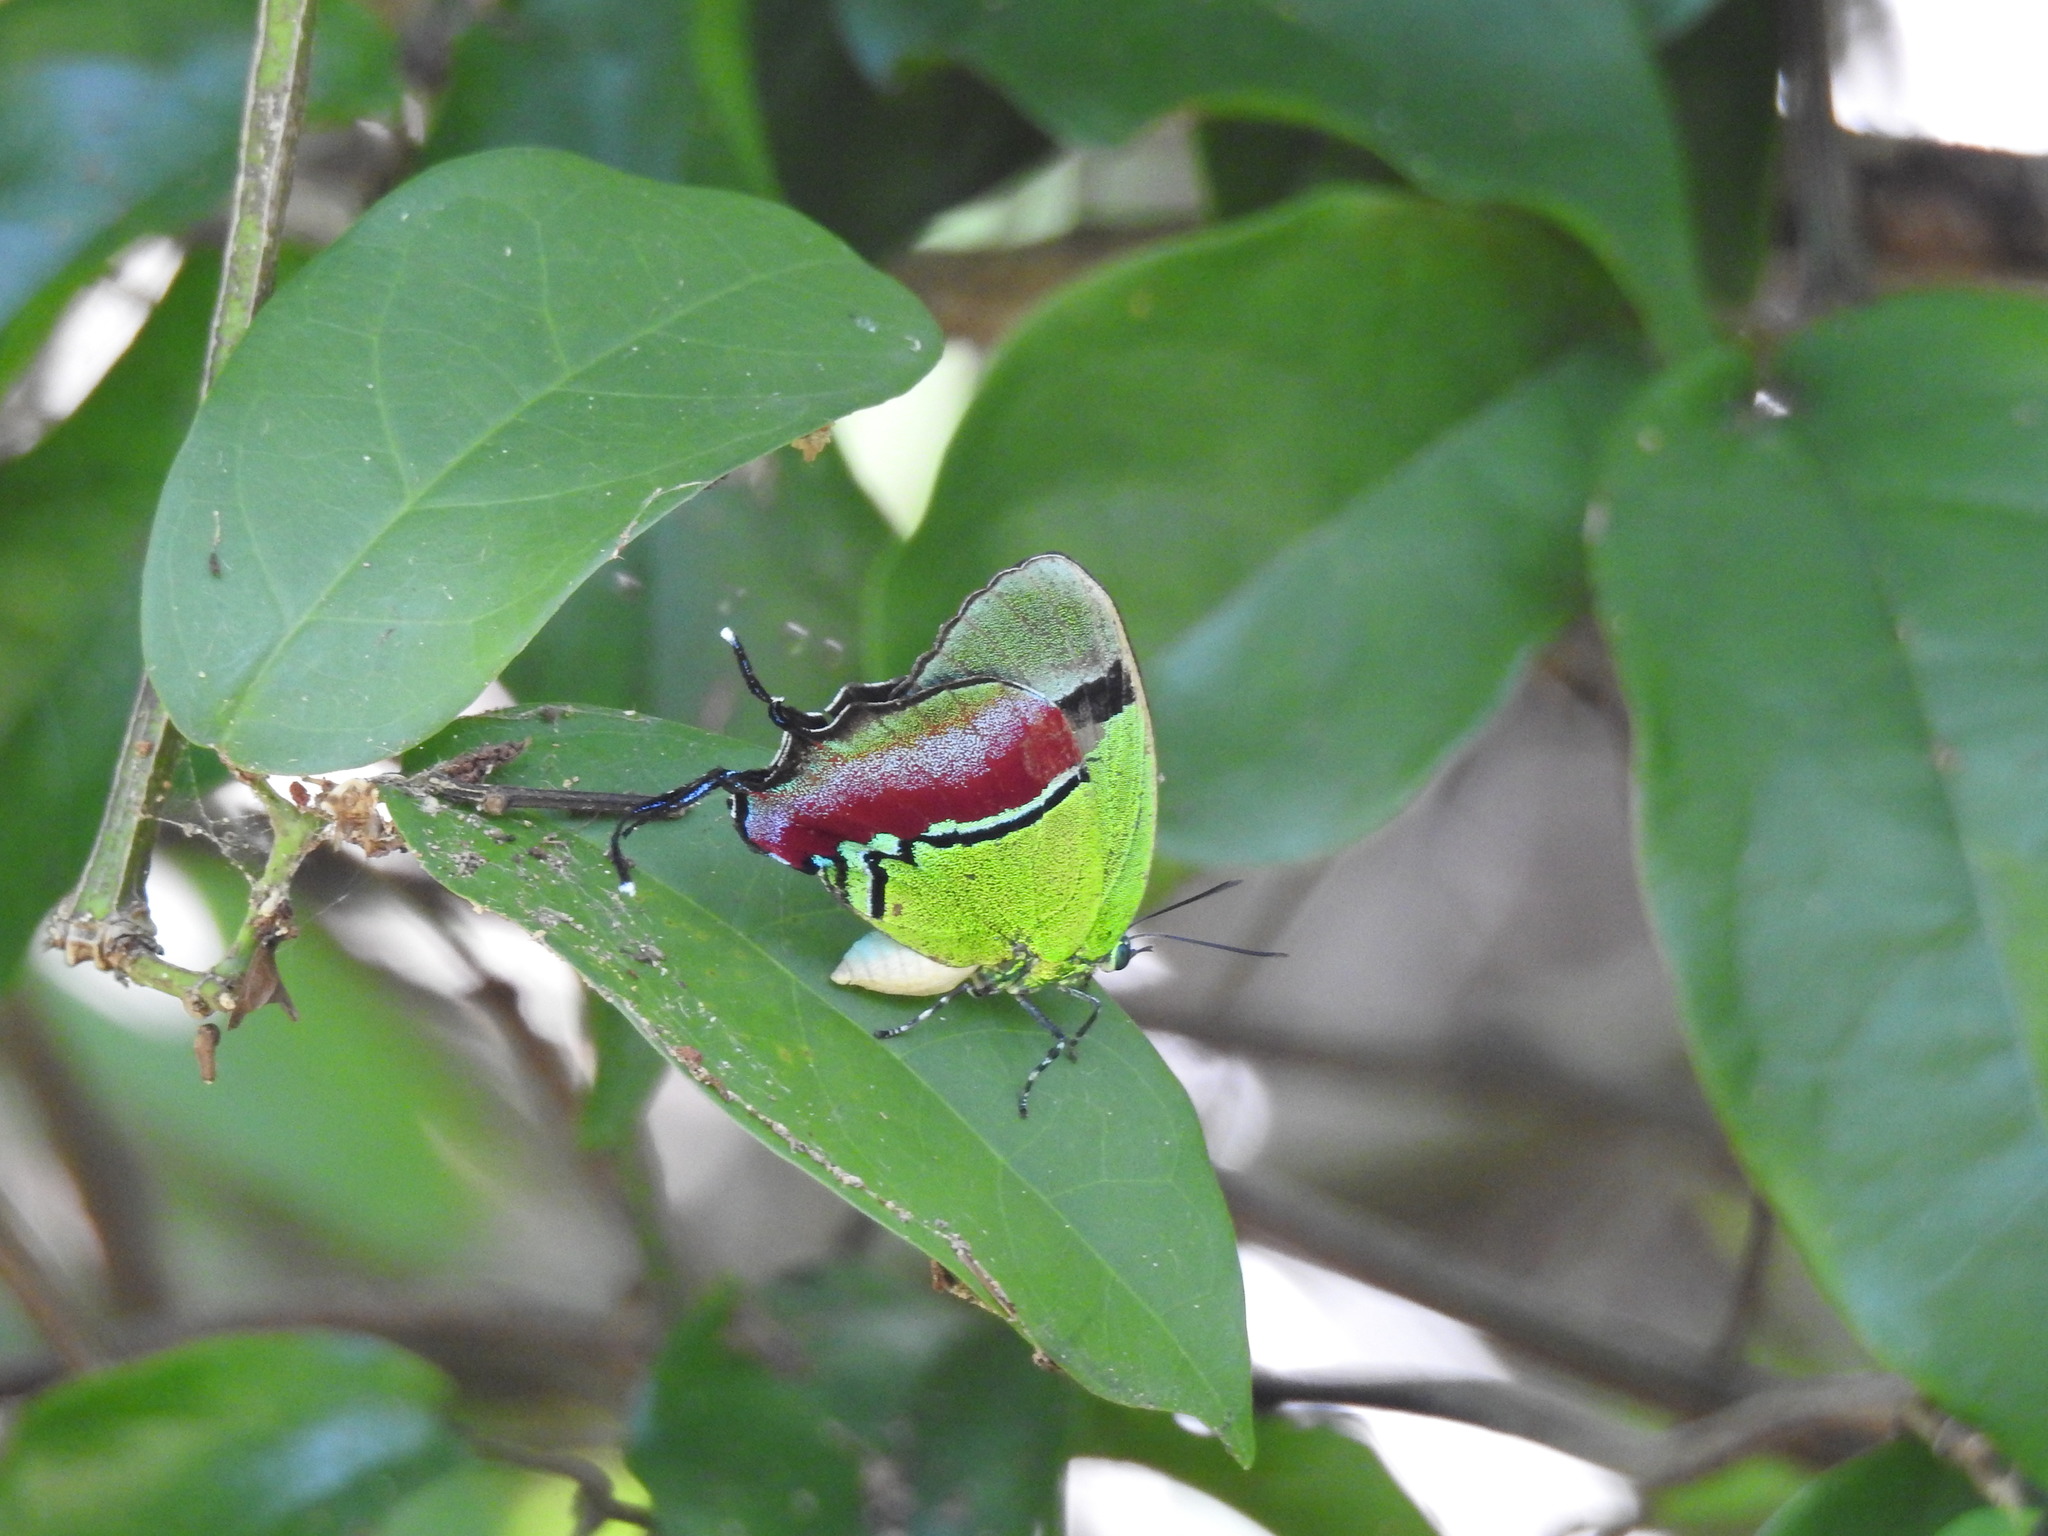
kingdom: Animalia
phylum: Arthropoda
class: Insecta
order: Lepidoptera
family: Lycaenidae
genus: Evenus
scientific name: Evenus regalis
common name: Regal hairstreak
